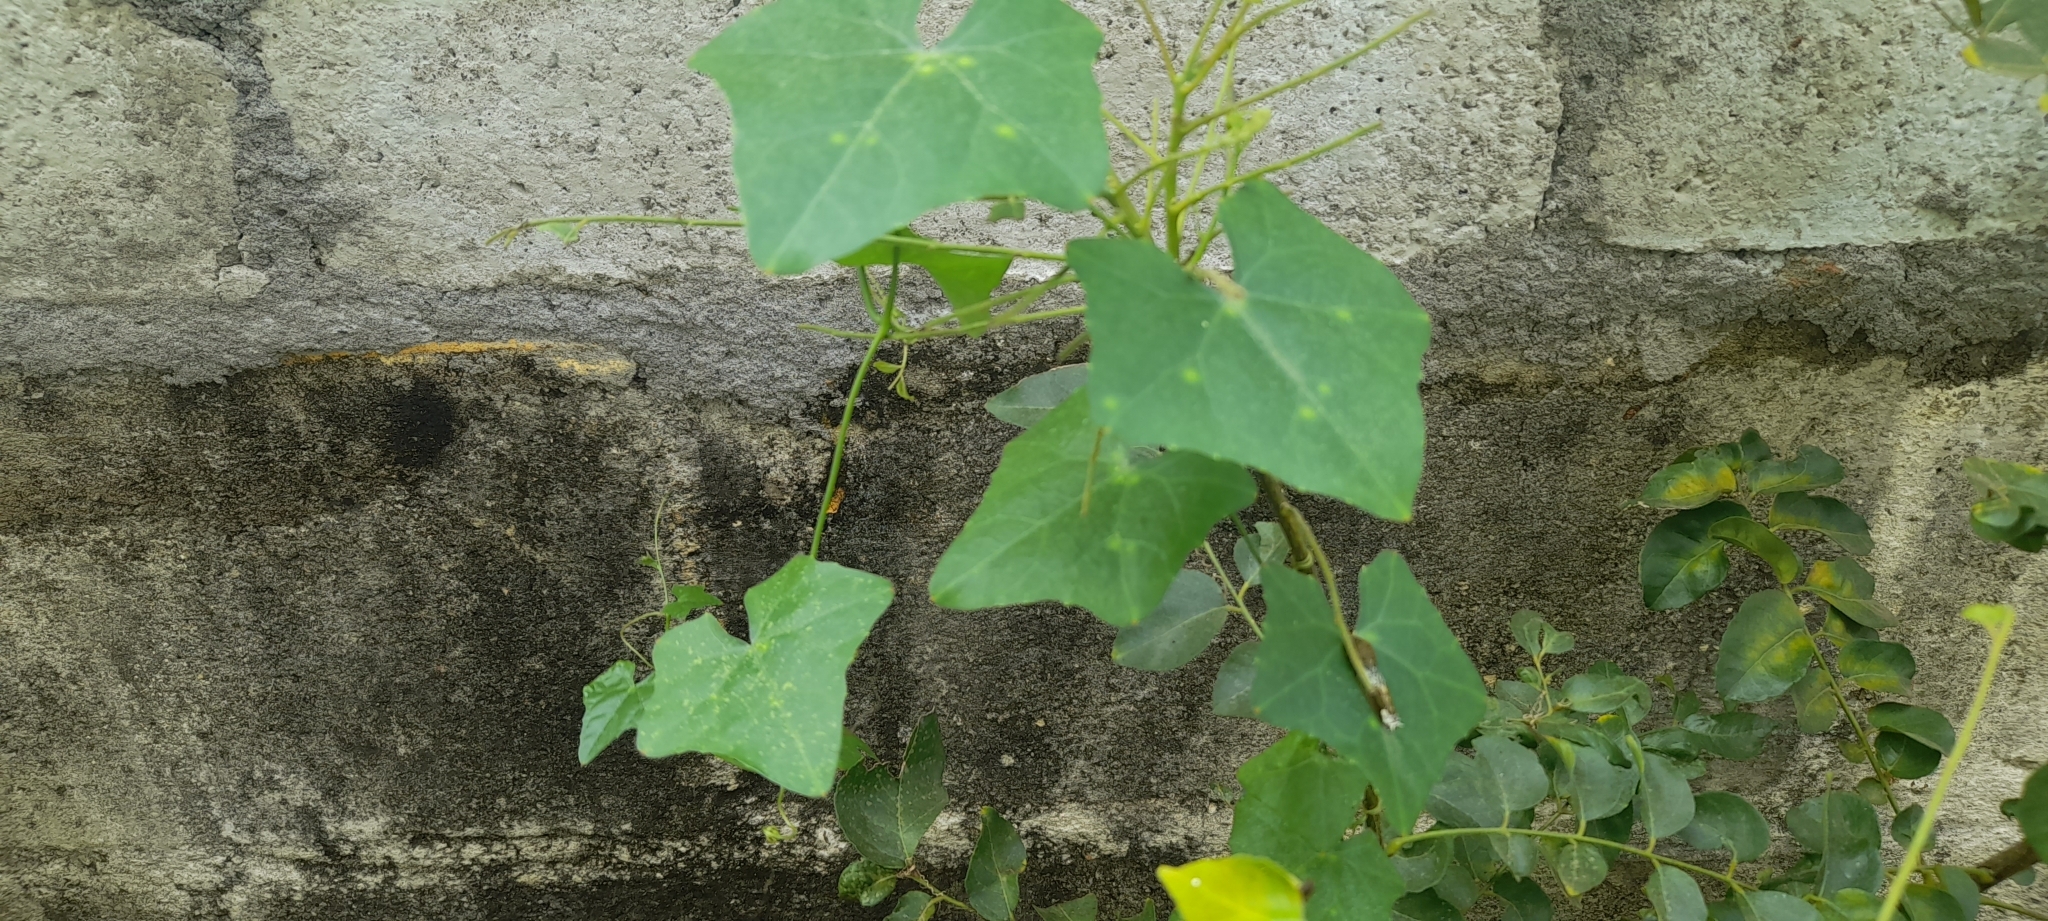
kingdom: Plantae
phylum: Tracheophyta
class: Magnoliopsida
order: Cucurbitales
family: Cucurbitaceae
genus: Coccinia
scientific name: Coccinia grandis
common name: Ivy gourd
